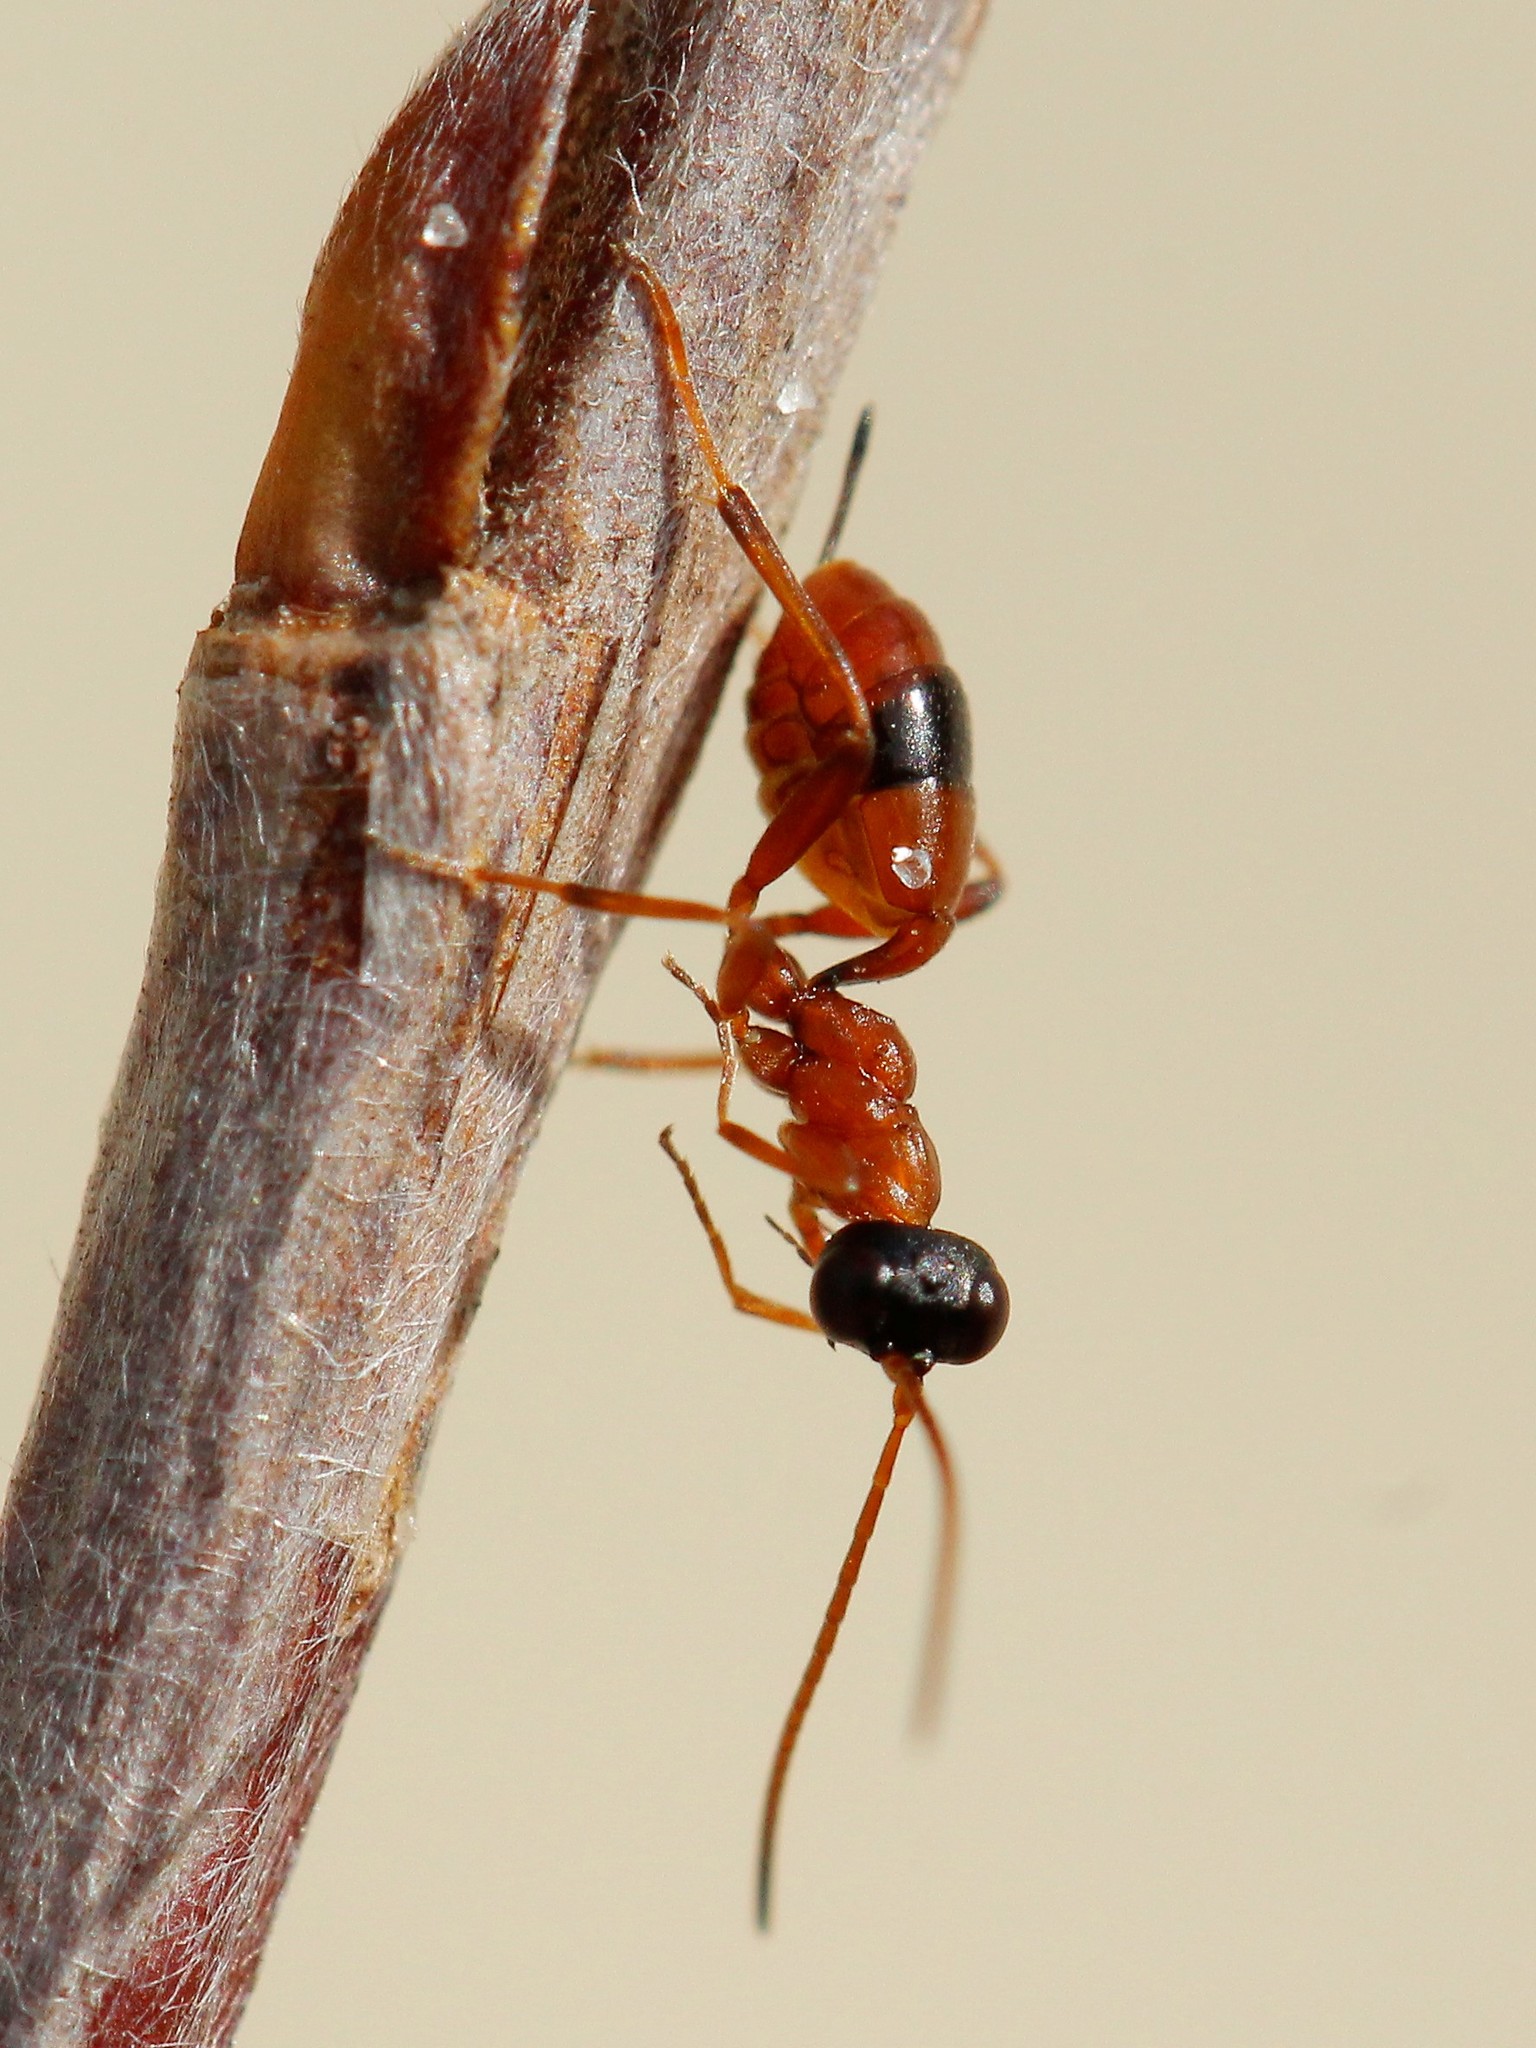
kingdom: Animalia
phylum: Arthropoda
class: Insecta
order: Hymenoptera
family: Ichneumonidae
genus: Gelis
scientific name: Gelis melanocephalus
